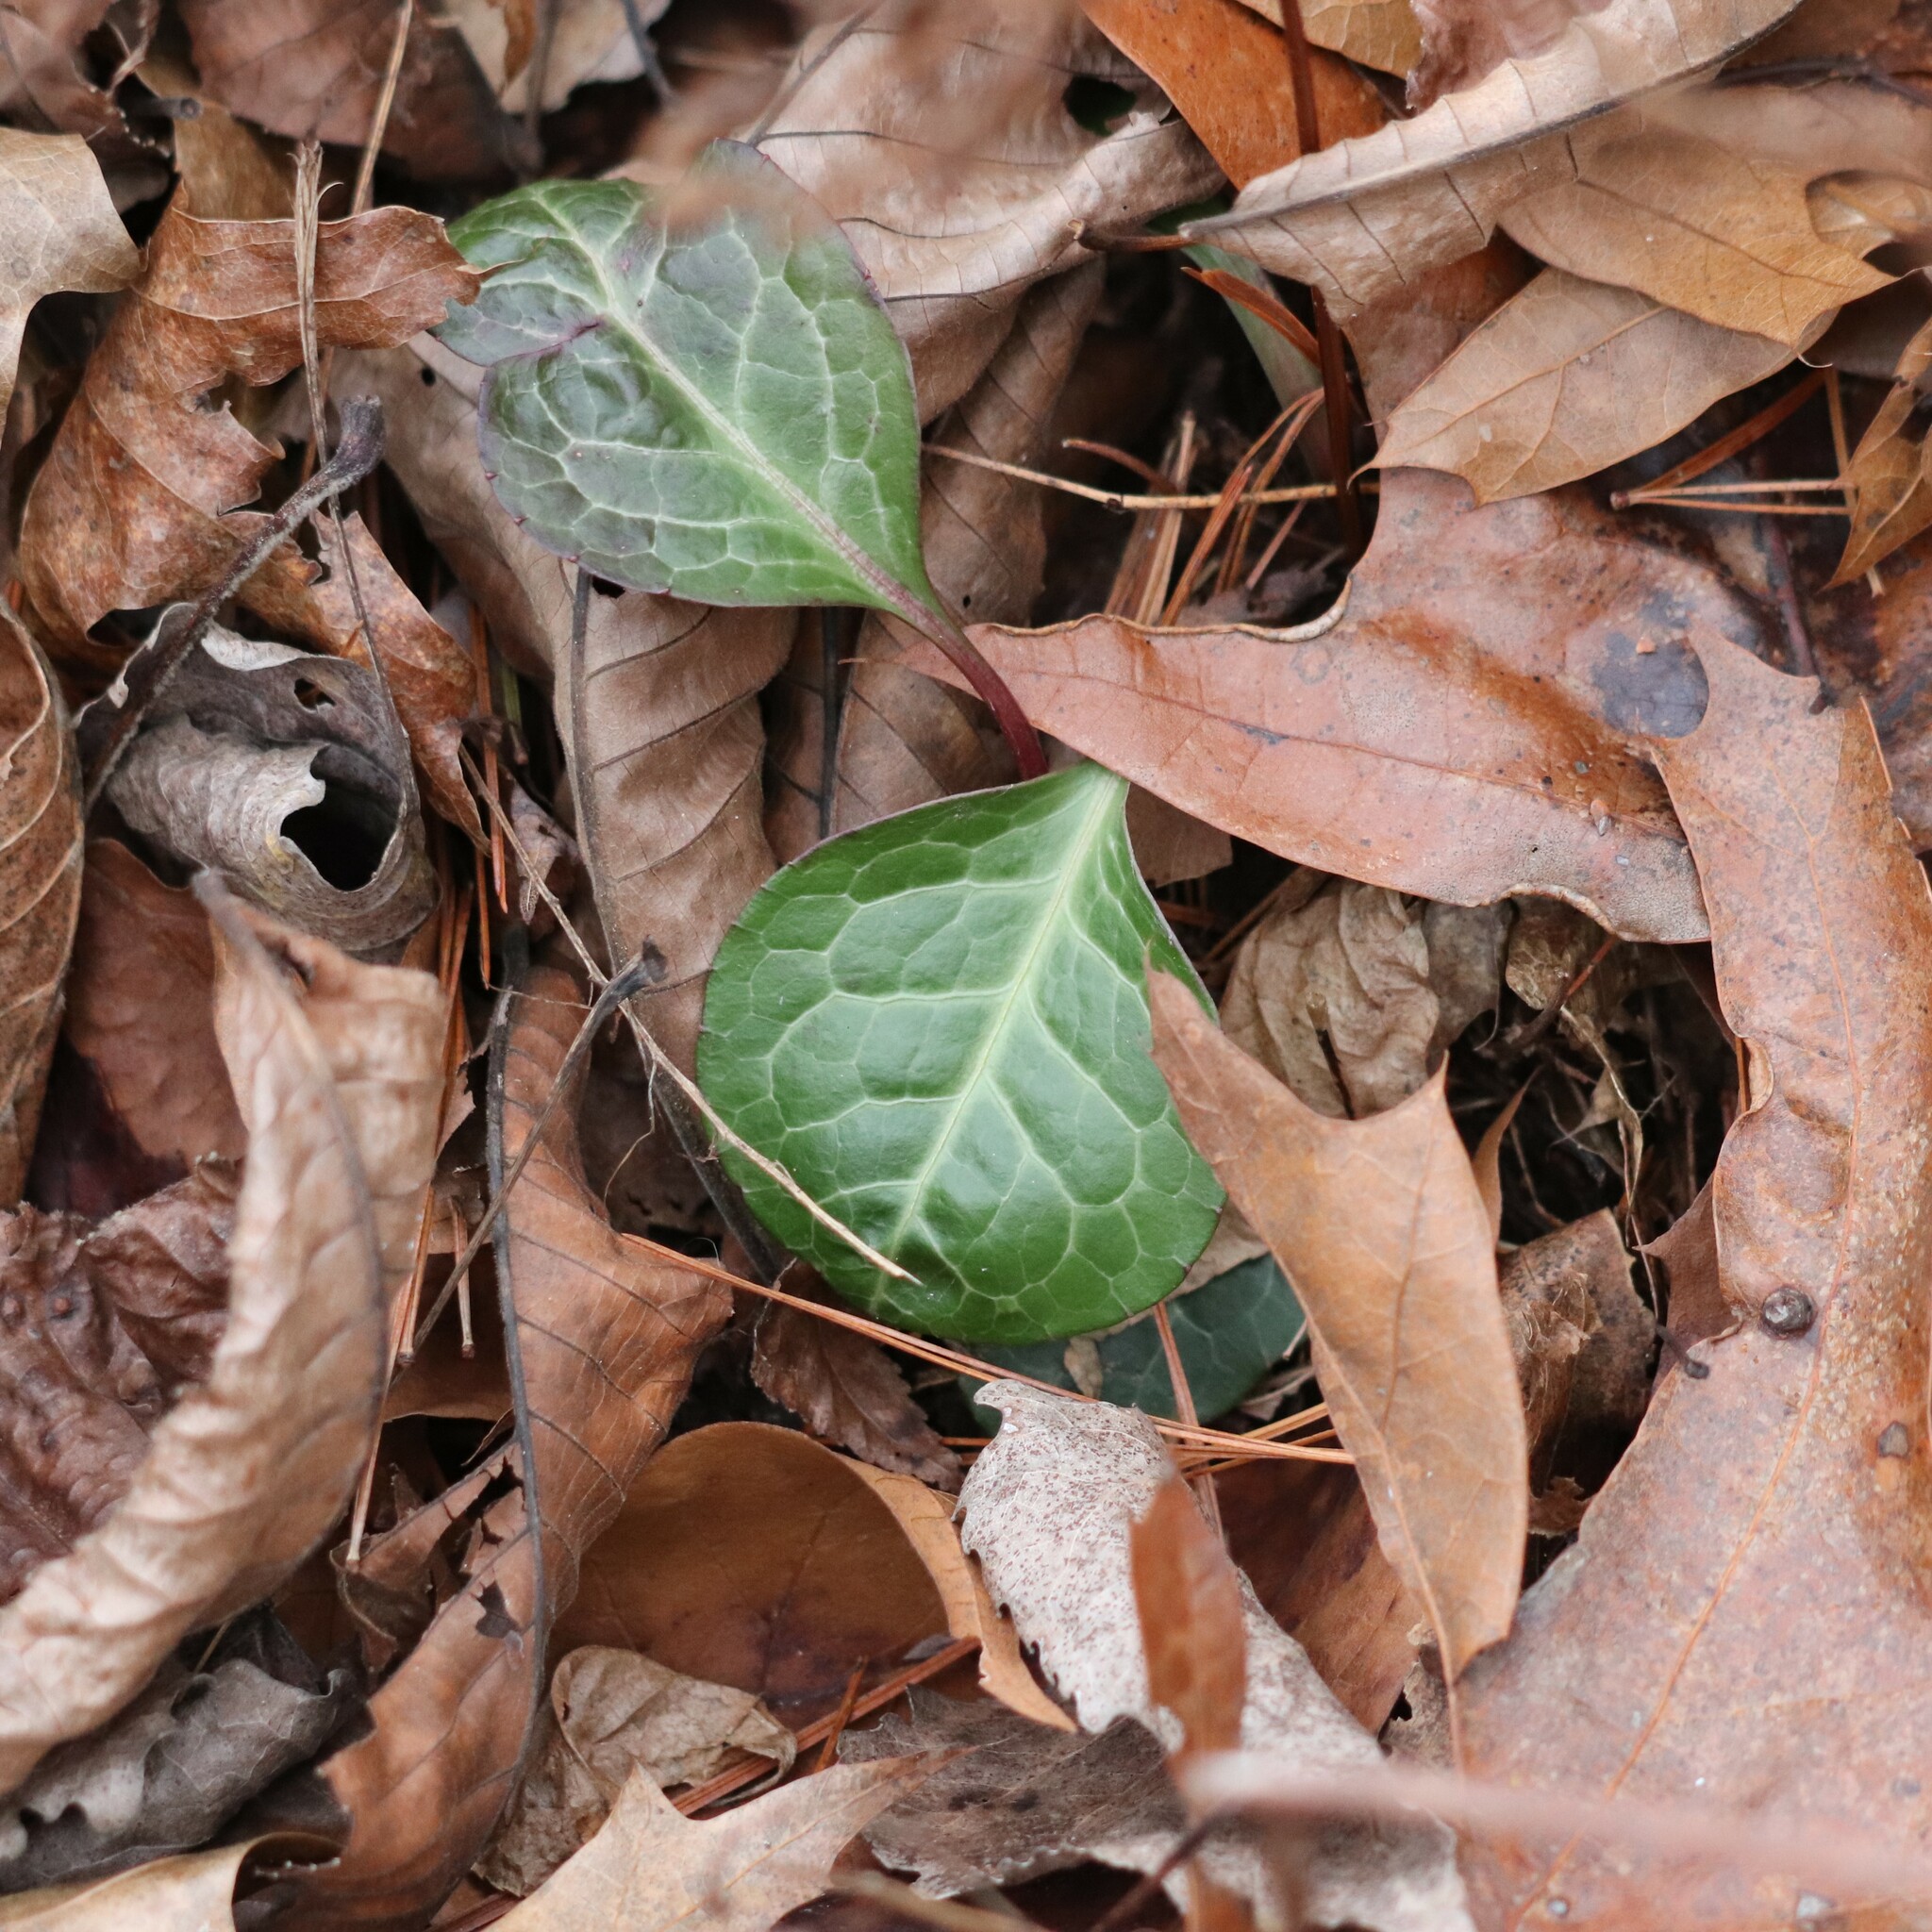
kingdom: Plantae
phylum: Tracheophyta
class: Magnoliopsida
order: Ericales
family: Ericaceae
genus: Pyrola
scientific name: Pyrola americana
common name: American wintergreen
